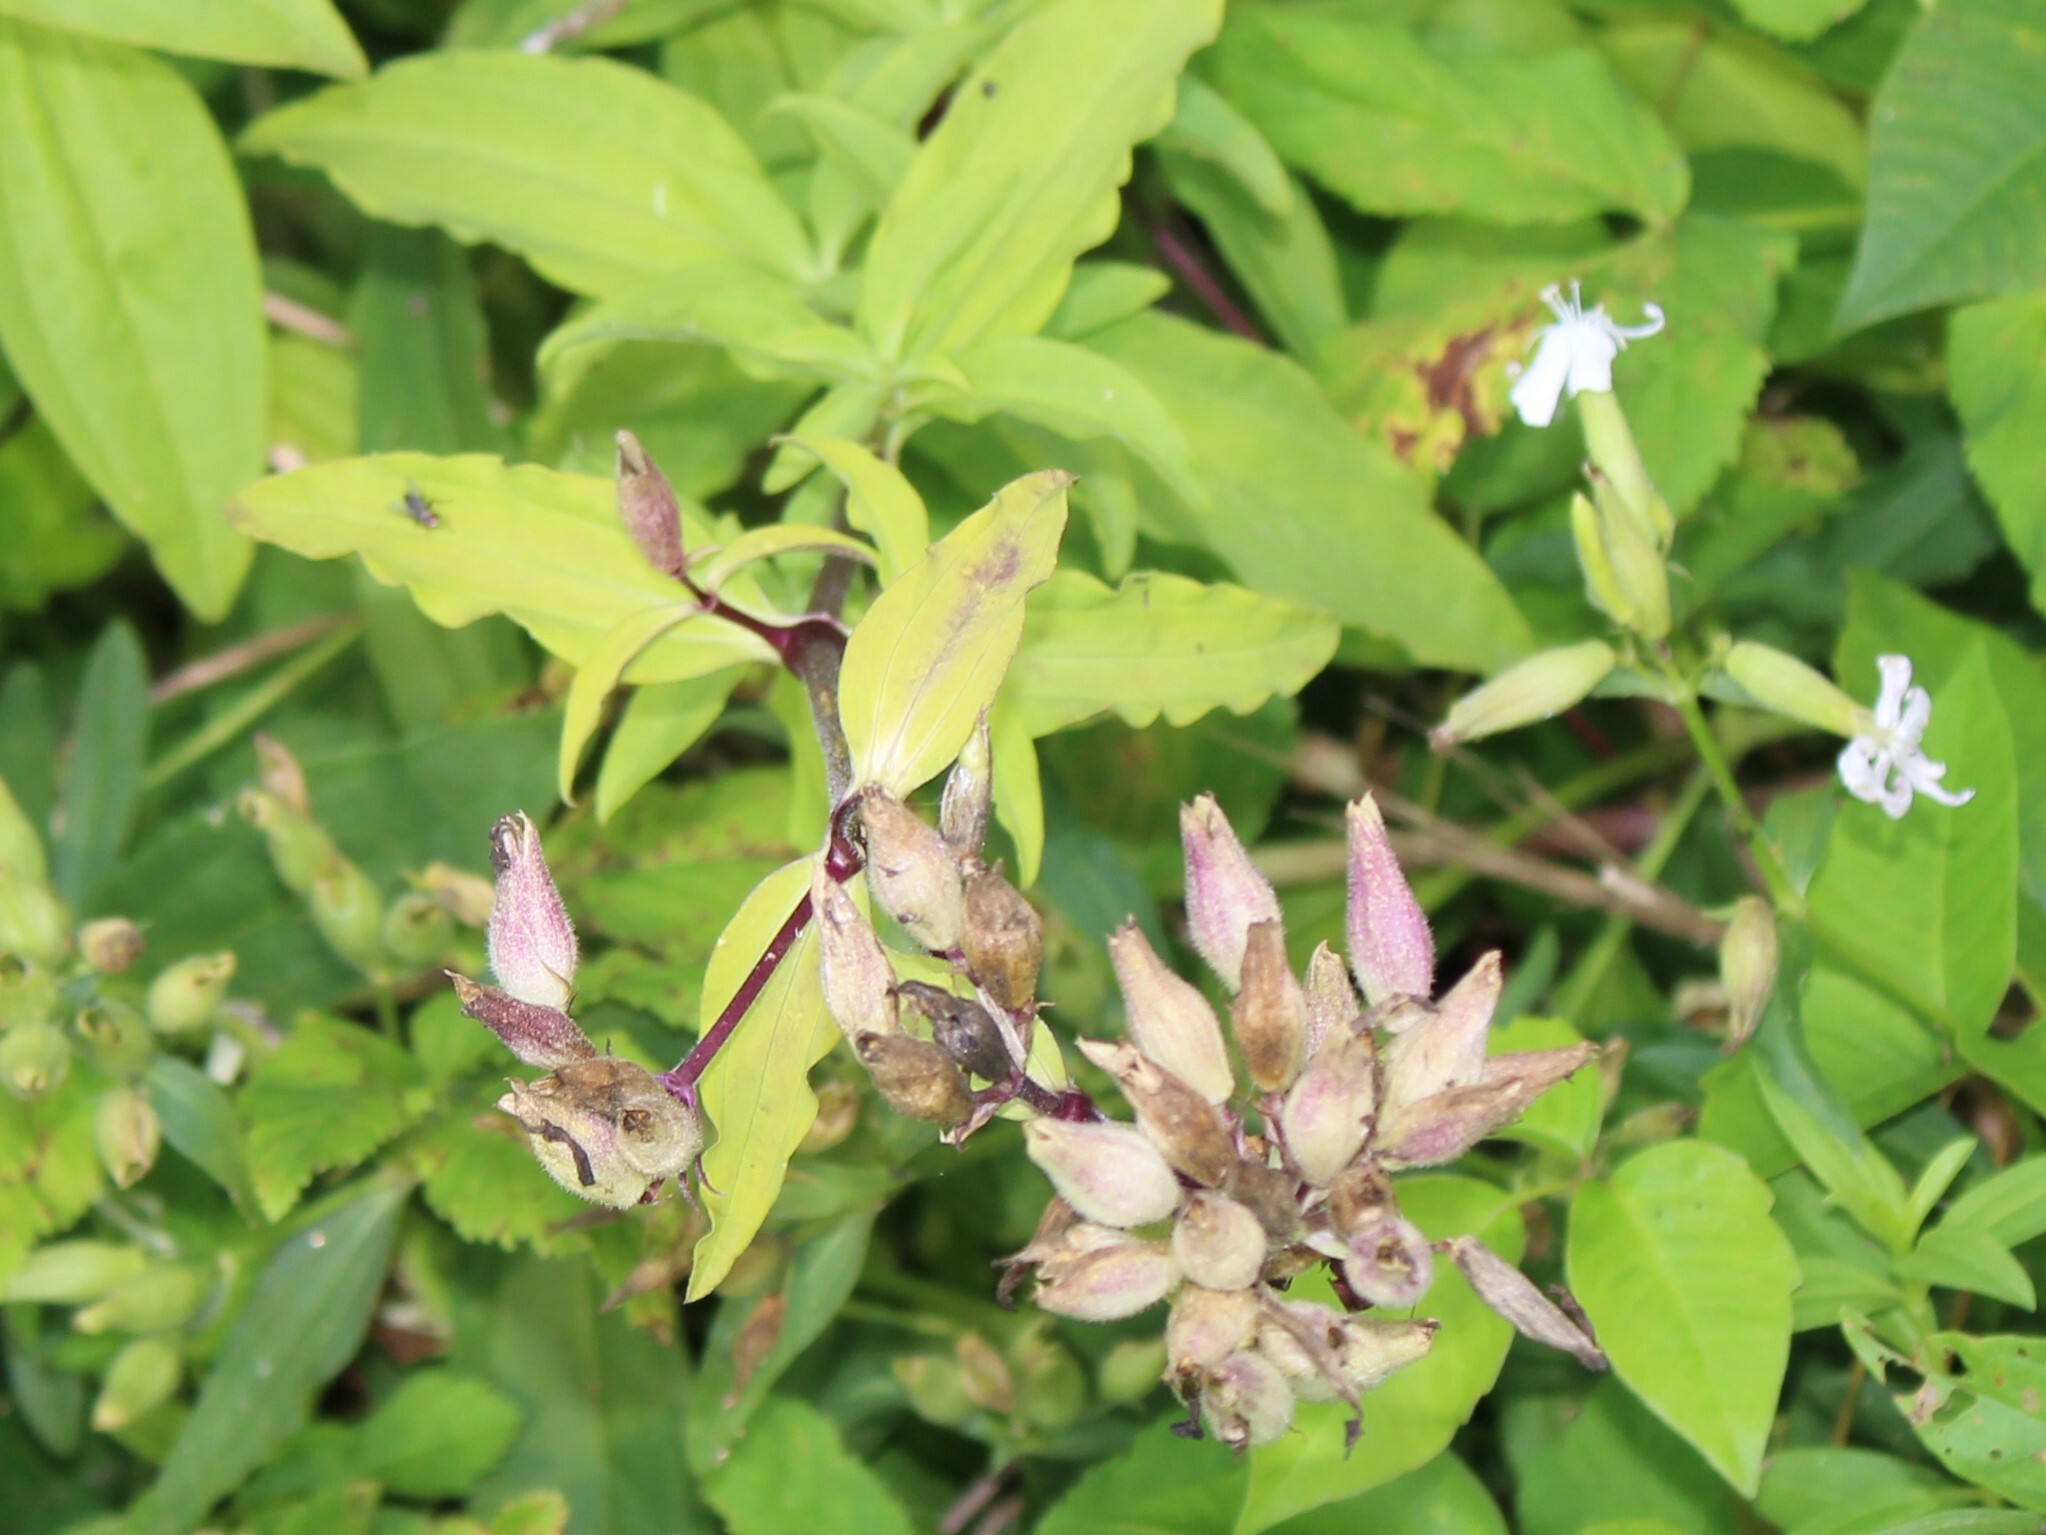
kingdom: Plantae
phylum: Tracheophyta
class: Magnoliopsida
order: Caryophyllales
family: Caryophyllaceae
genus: Saponaria
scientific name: Saponaria officinalis
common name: Soapwort
